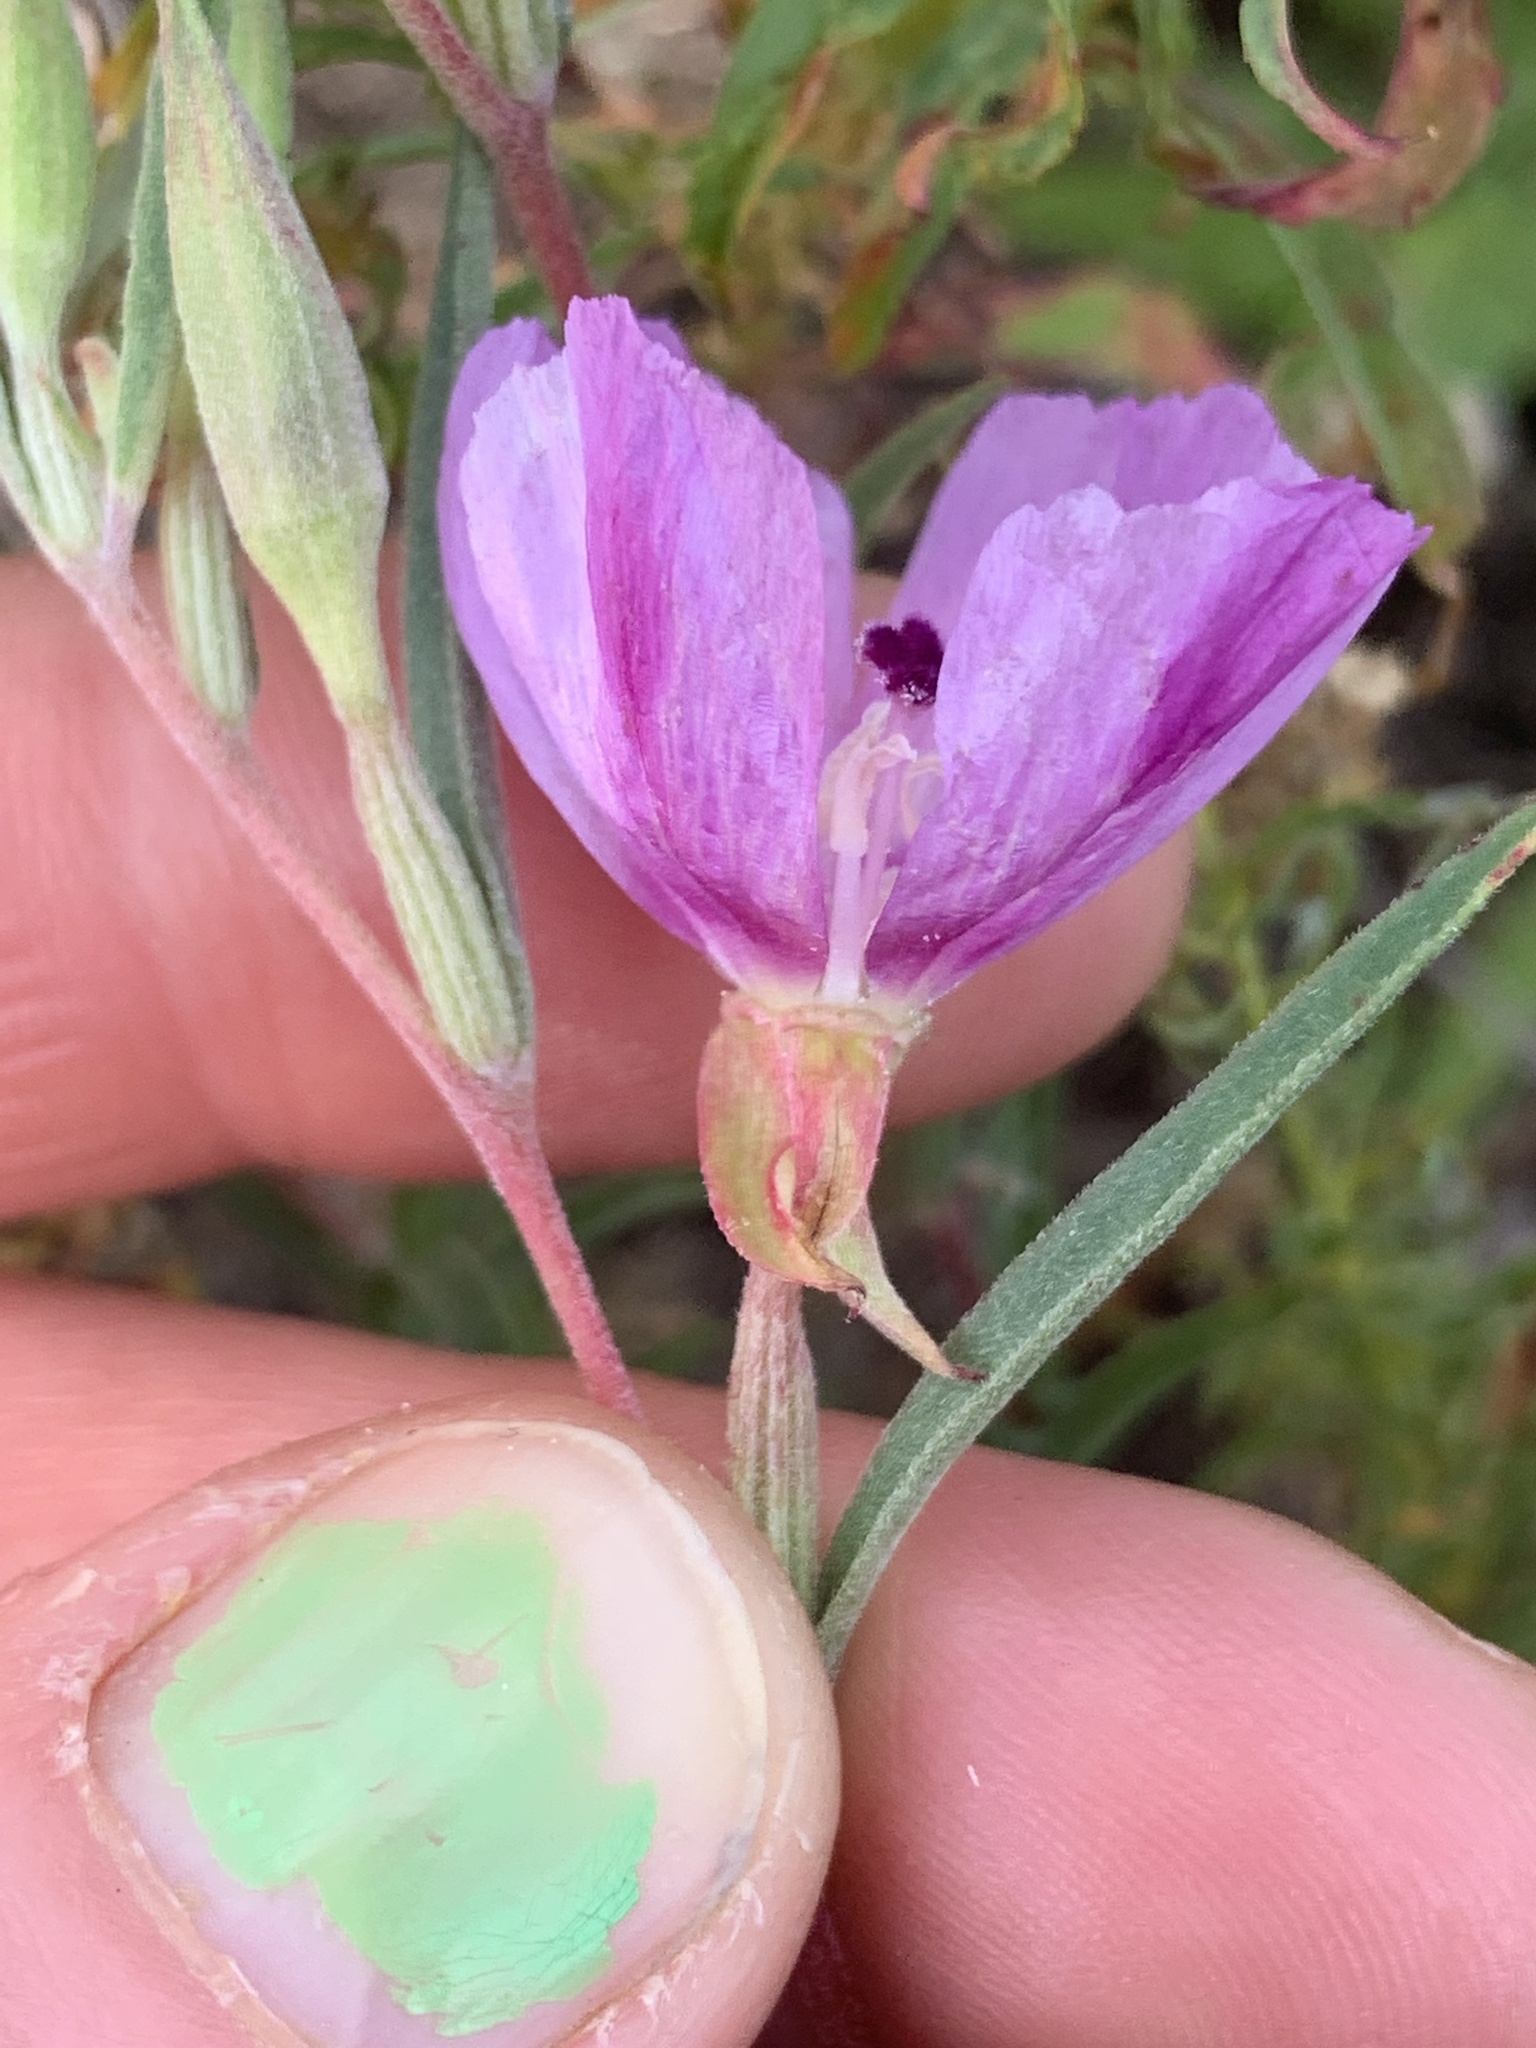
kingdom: Plantae
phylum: Tracheophyta
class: Magnoliopsida
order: Myrtales
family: Onagraceae
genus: Clarkia
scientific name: Clarkia purpurea
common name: Purple clarkia
